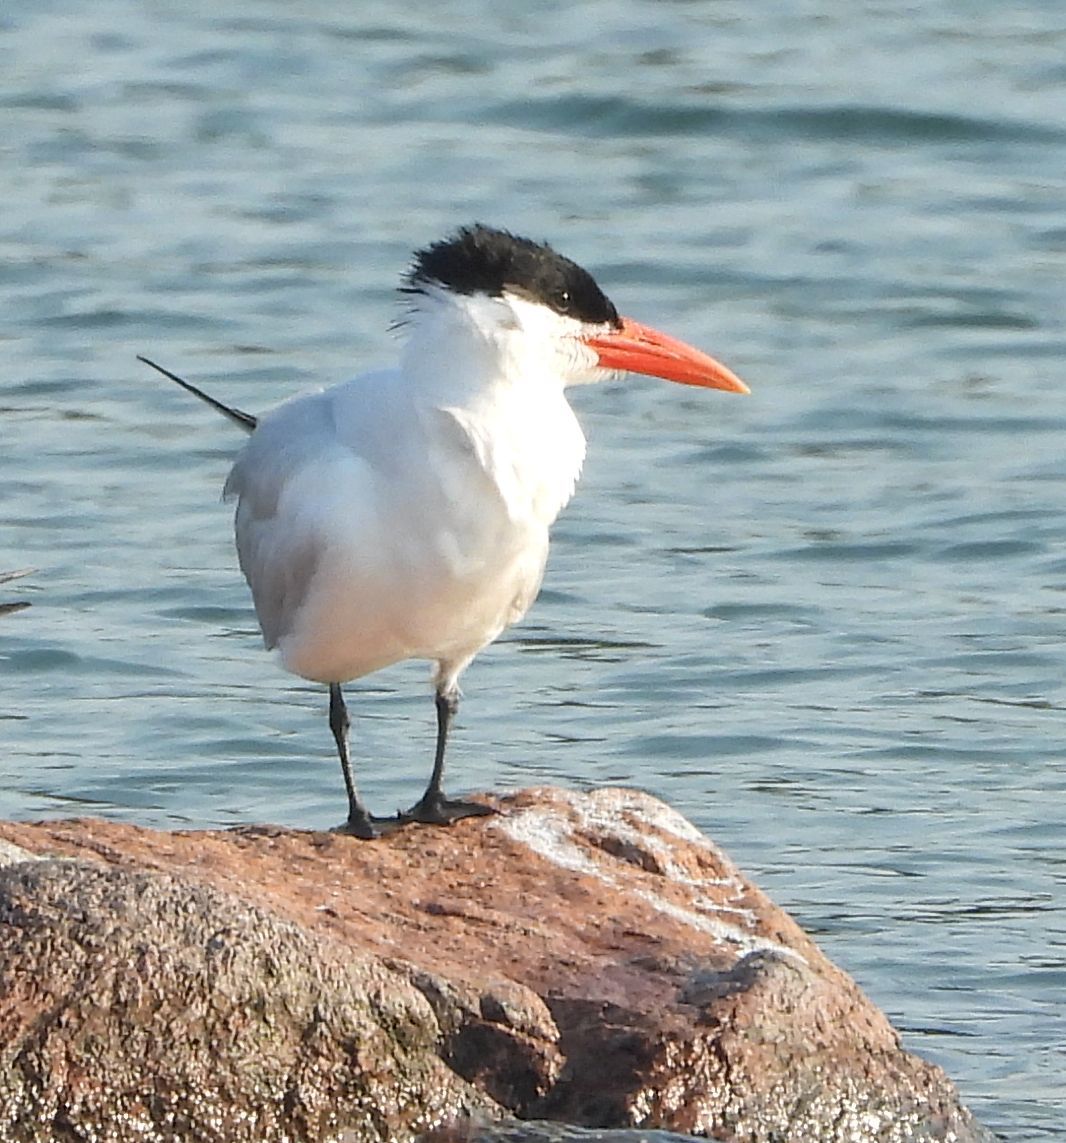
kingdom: Animalia
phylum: Chordata
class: Aves
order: Charadriiformes
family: Laridae
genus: Hydroprogne
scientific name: Hydroprogne caspia
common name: Caspian tern
